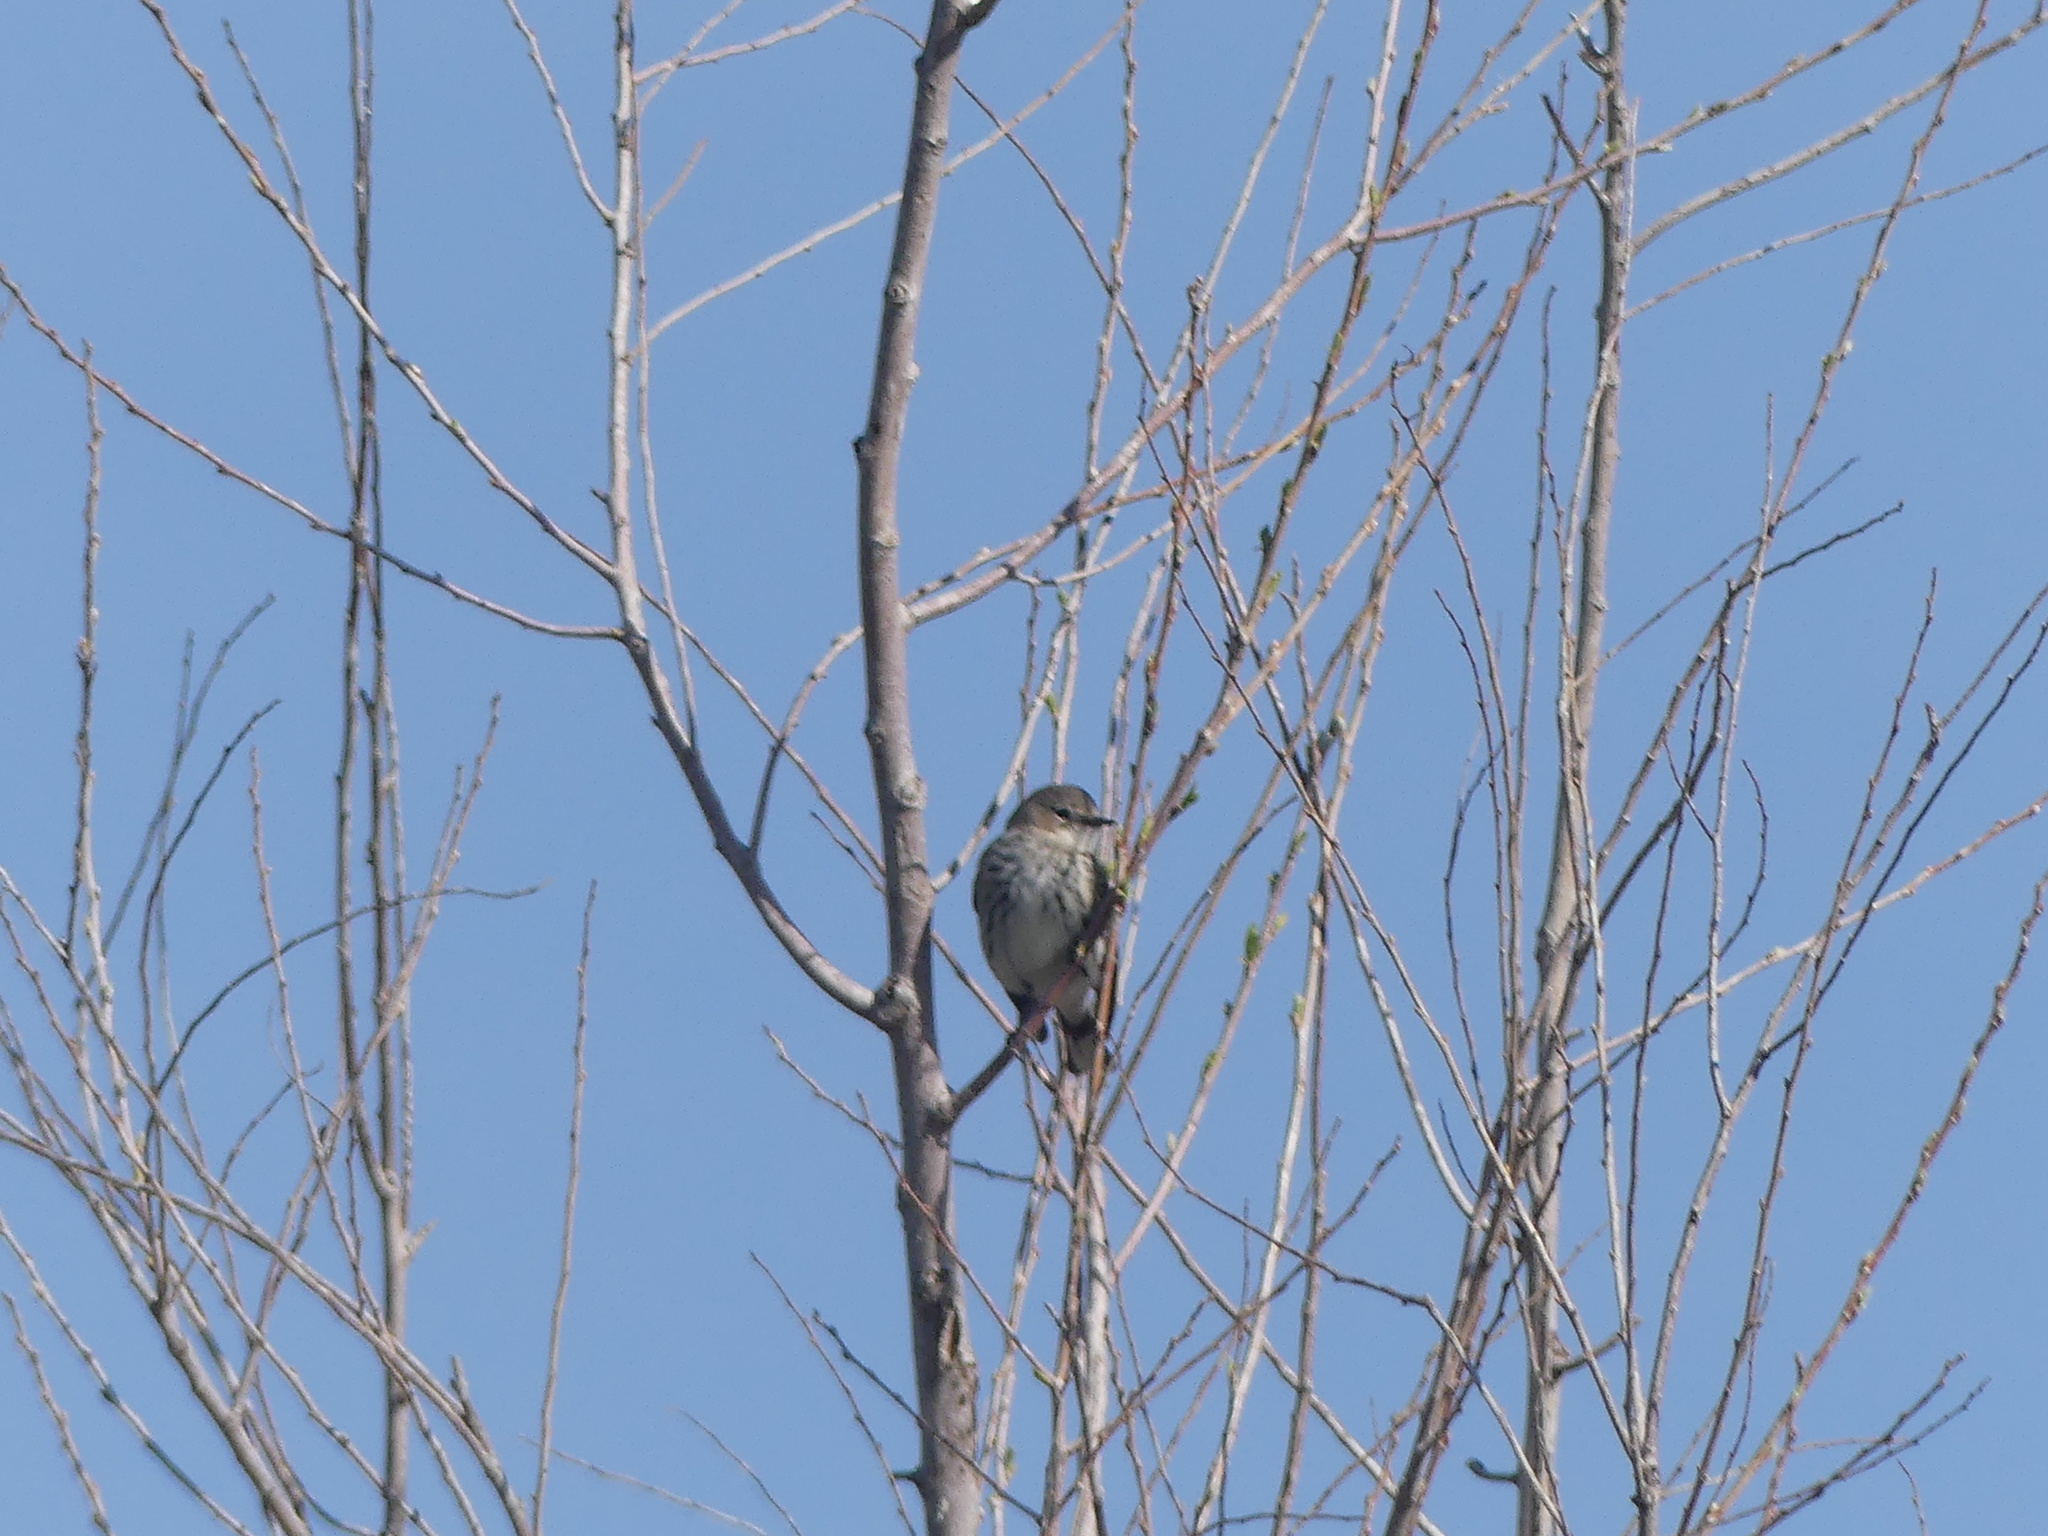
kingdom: Animalia
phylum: Chordata
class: Aves
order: Passeriformes
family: Parulidae
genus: Setophaga
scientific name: Setophaga coronata
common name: Myrtle warbler
